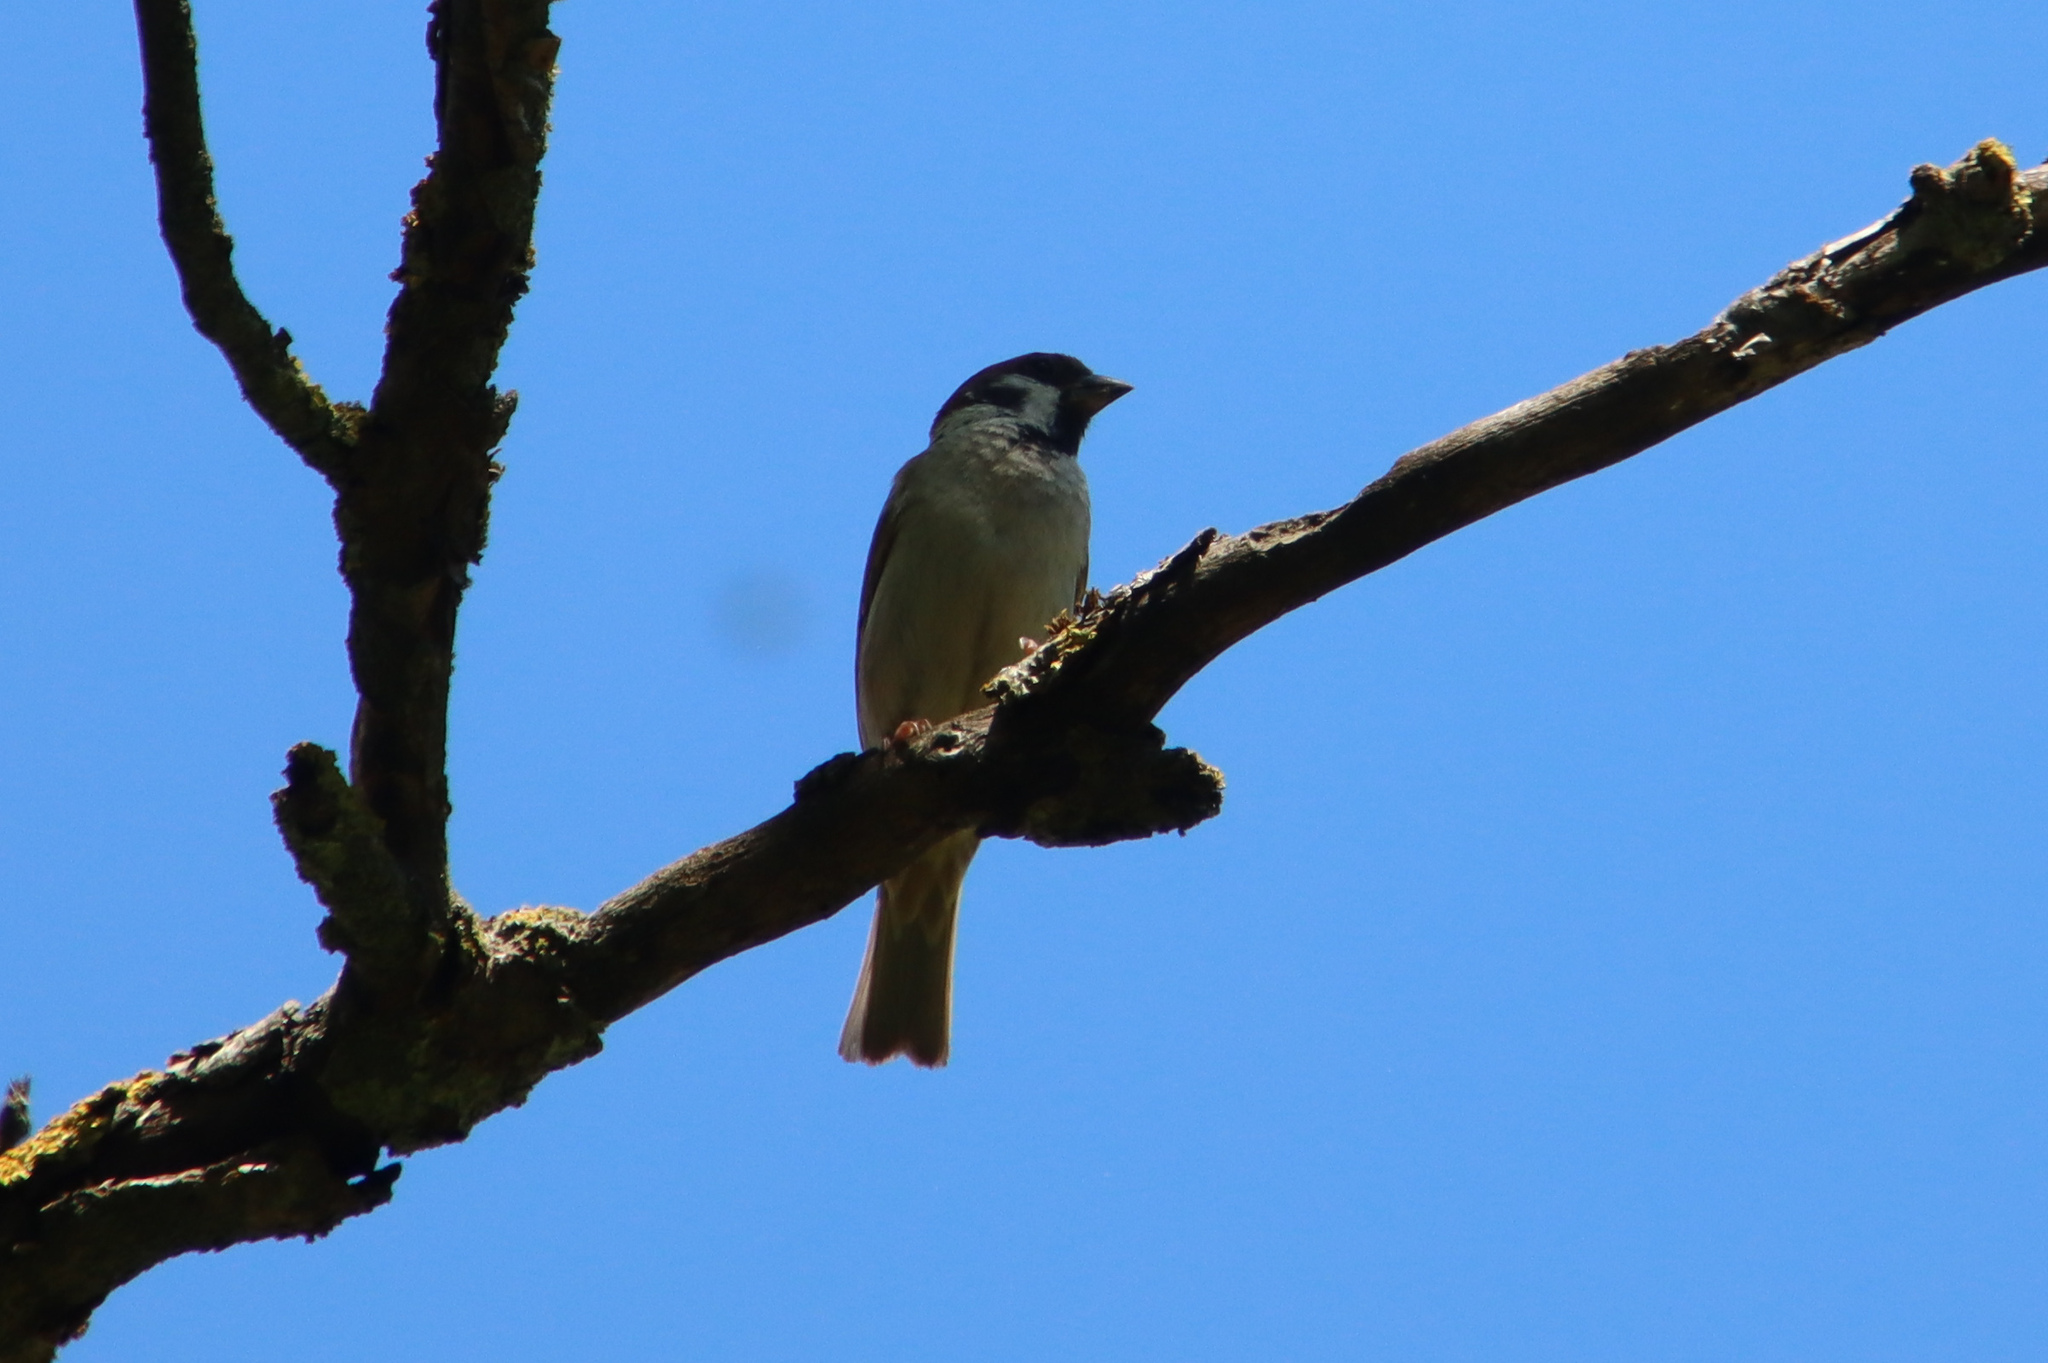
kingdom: Animalia
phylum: Chordata
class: Aves
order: Passeriformes
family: Passeridae
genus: Passer
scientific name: Passer montanus
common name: Eurasian tree sparrow
